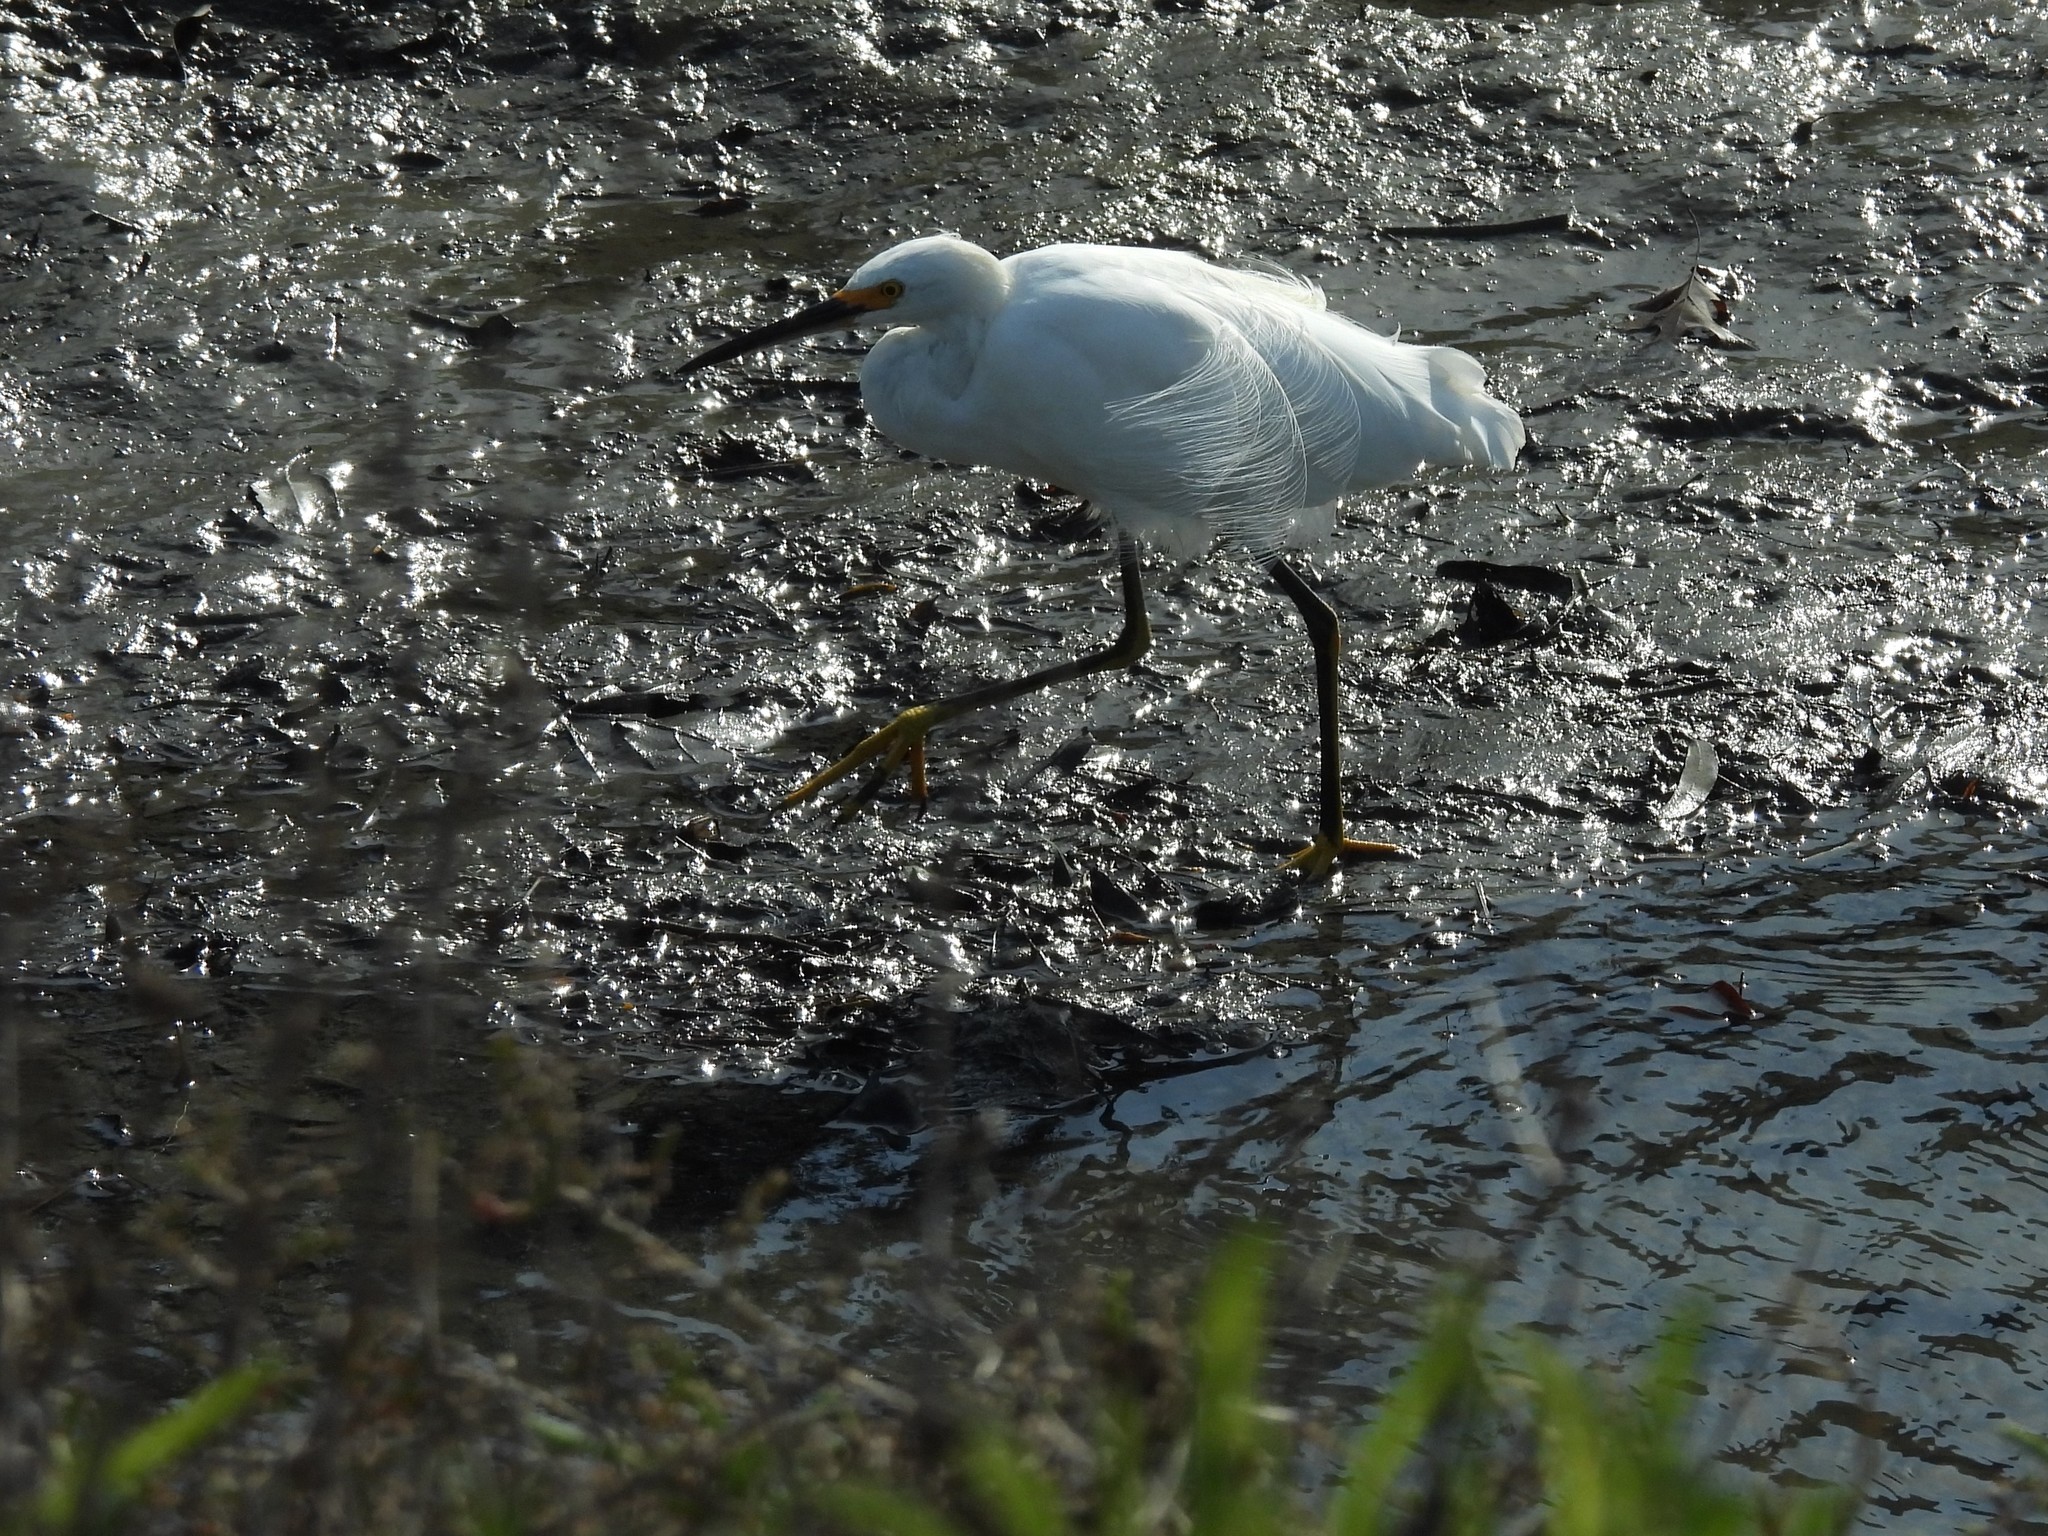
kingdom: Animalia
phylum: Chordata
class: Aves
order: Pelecaniformes
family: Ardeidae
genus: Egretta
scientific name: Egretta thula
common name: Snowy egret
